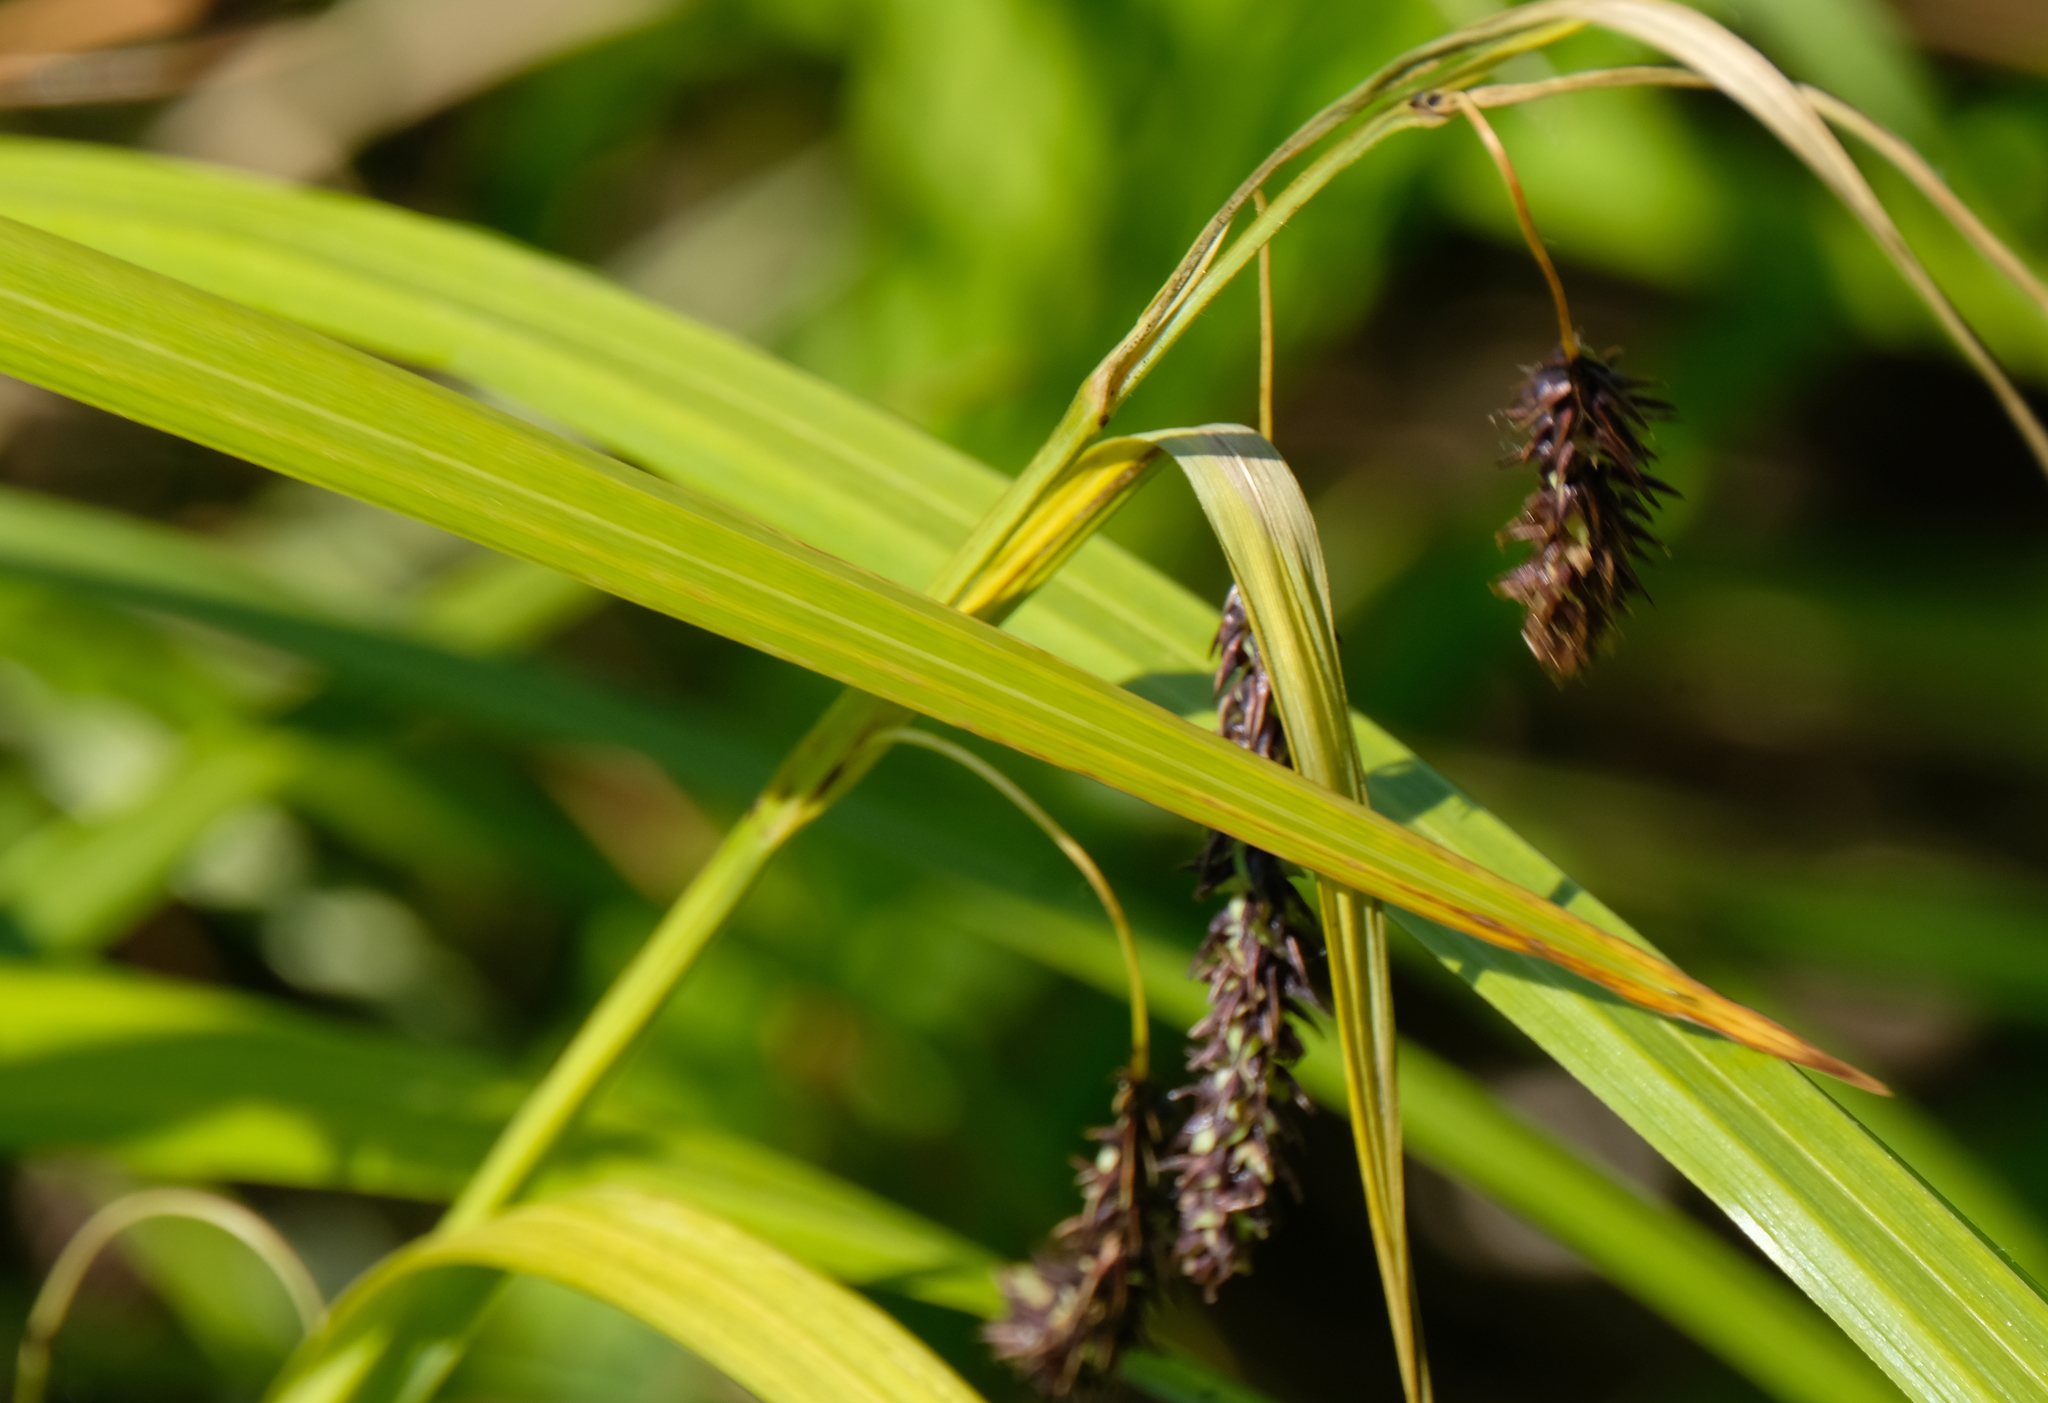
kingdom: Plantae
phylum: Tracheophyta
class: Liliopsida
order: Poales
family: Cyperaceae
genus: Carex
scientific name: Carex lyngbyei
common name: Lyngbye's sedge
